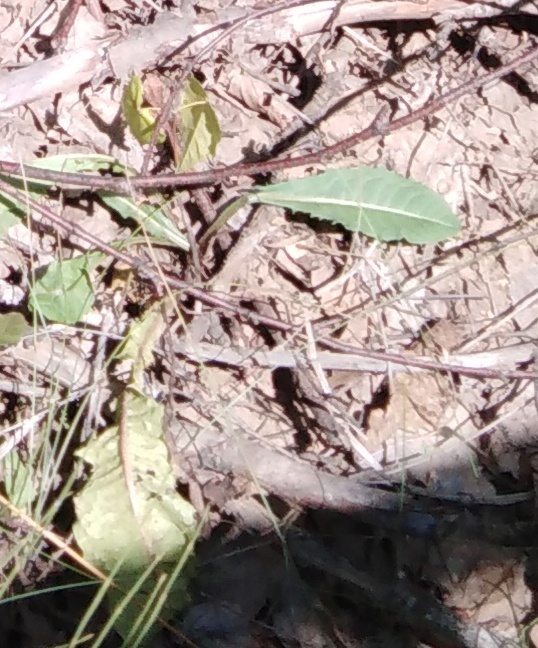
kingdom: Plantae
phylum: Tracheophyta
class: Magnoliopsida
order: Asterales
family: Asteraceae
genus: Taraxacum
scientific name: Taraxacum officinale
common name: Common dandelion
